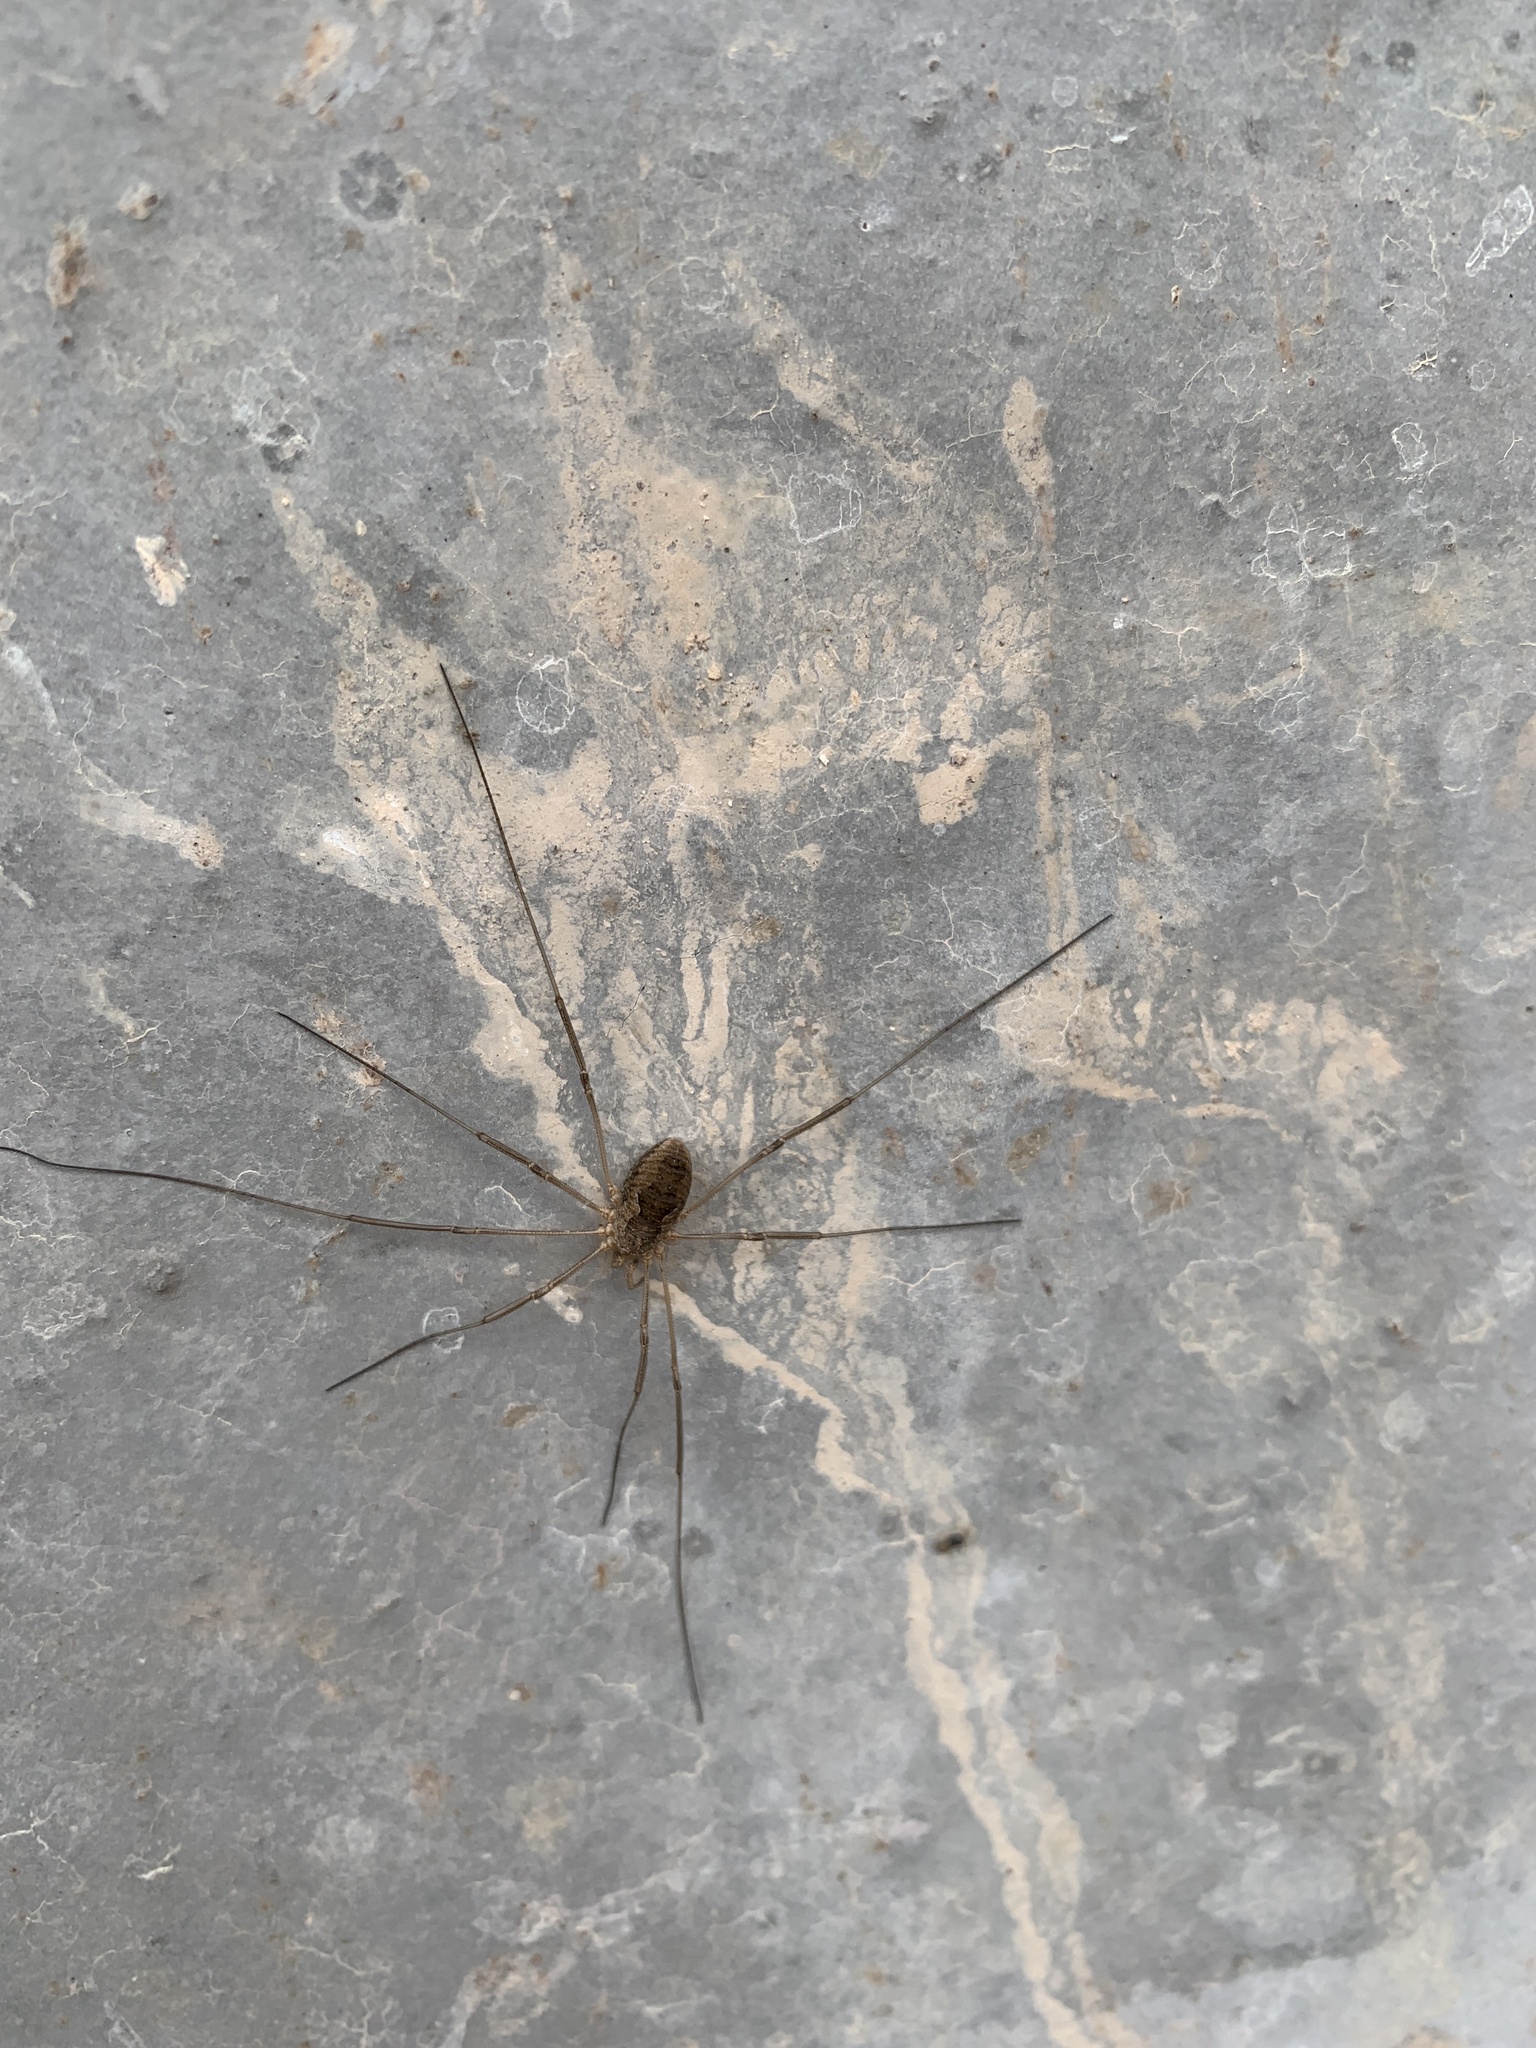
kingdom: Animalia
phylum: Arthropoda
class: Arachnida
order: Opiliones
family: Phalangiidae
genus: Phalangium
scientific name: Phalangium opilio
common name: Daddy longleg
